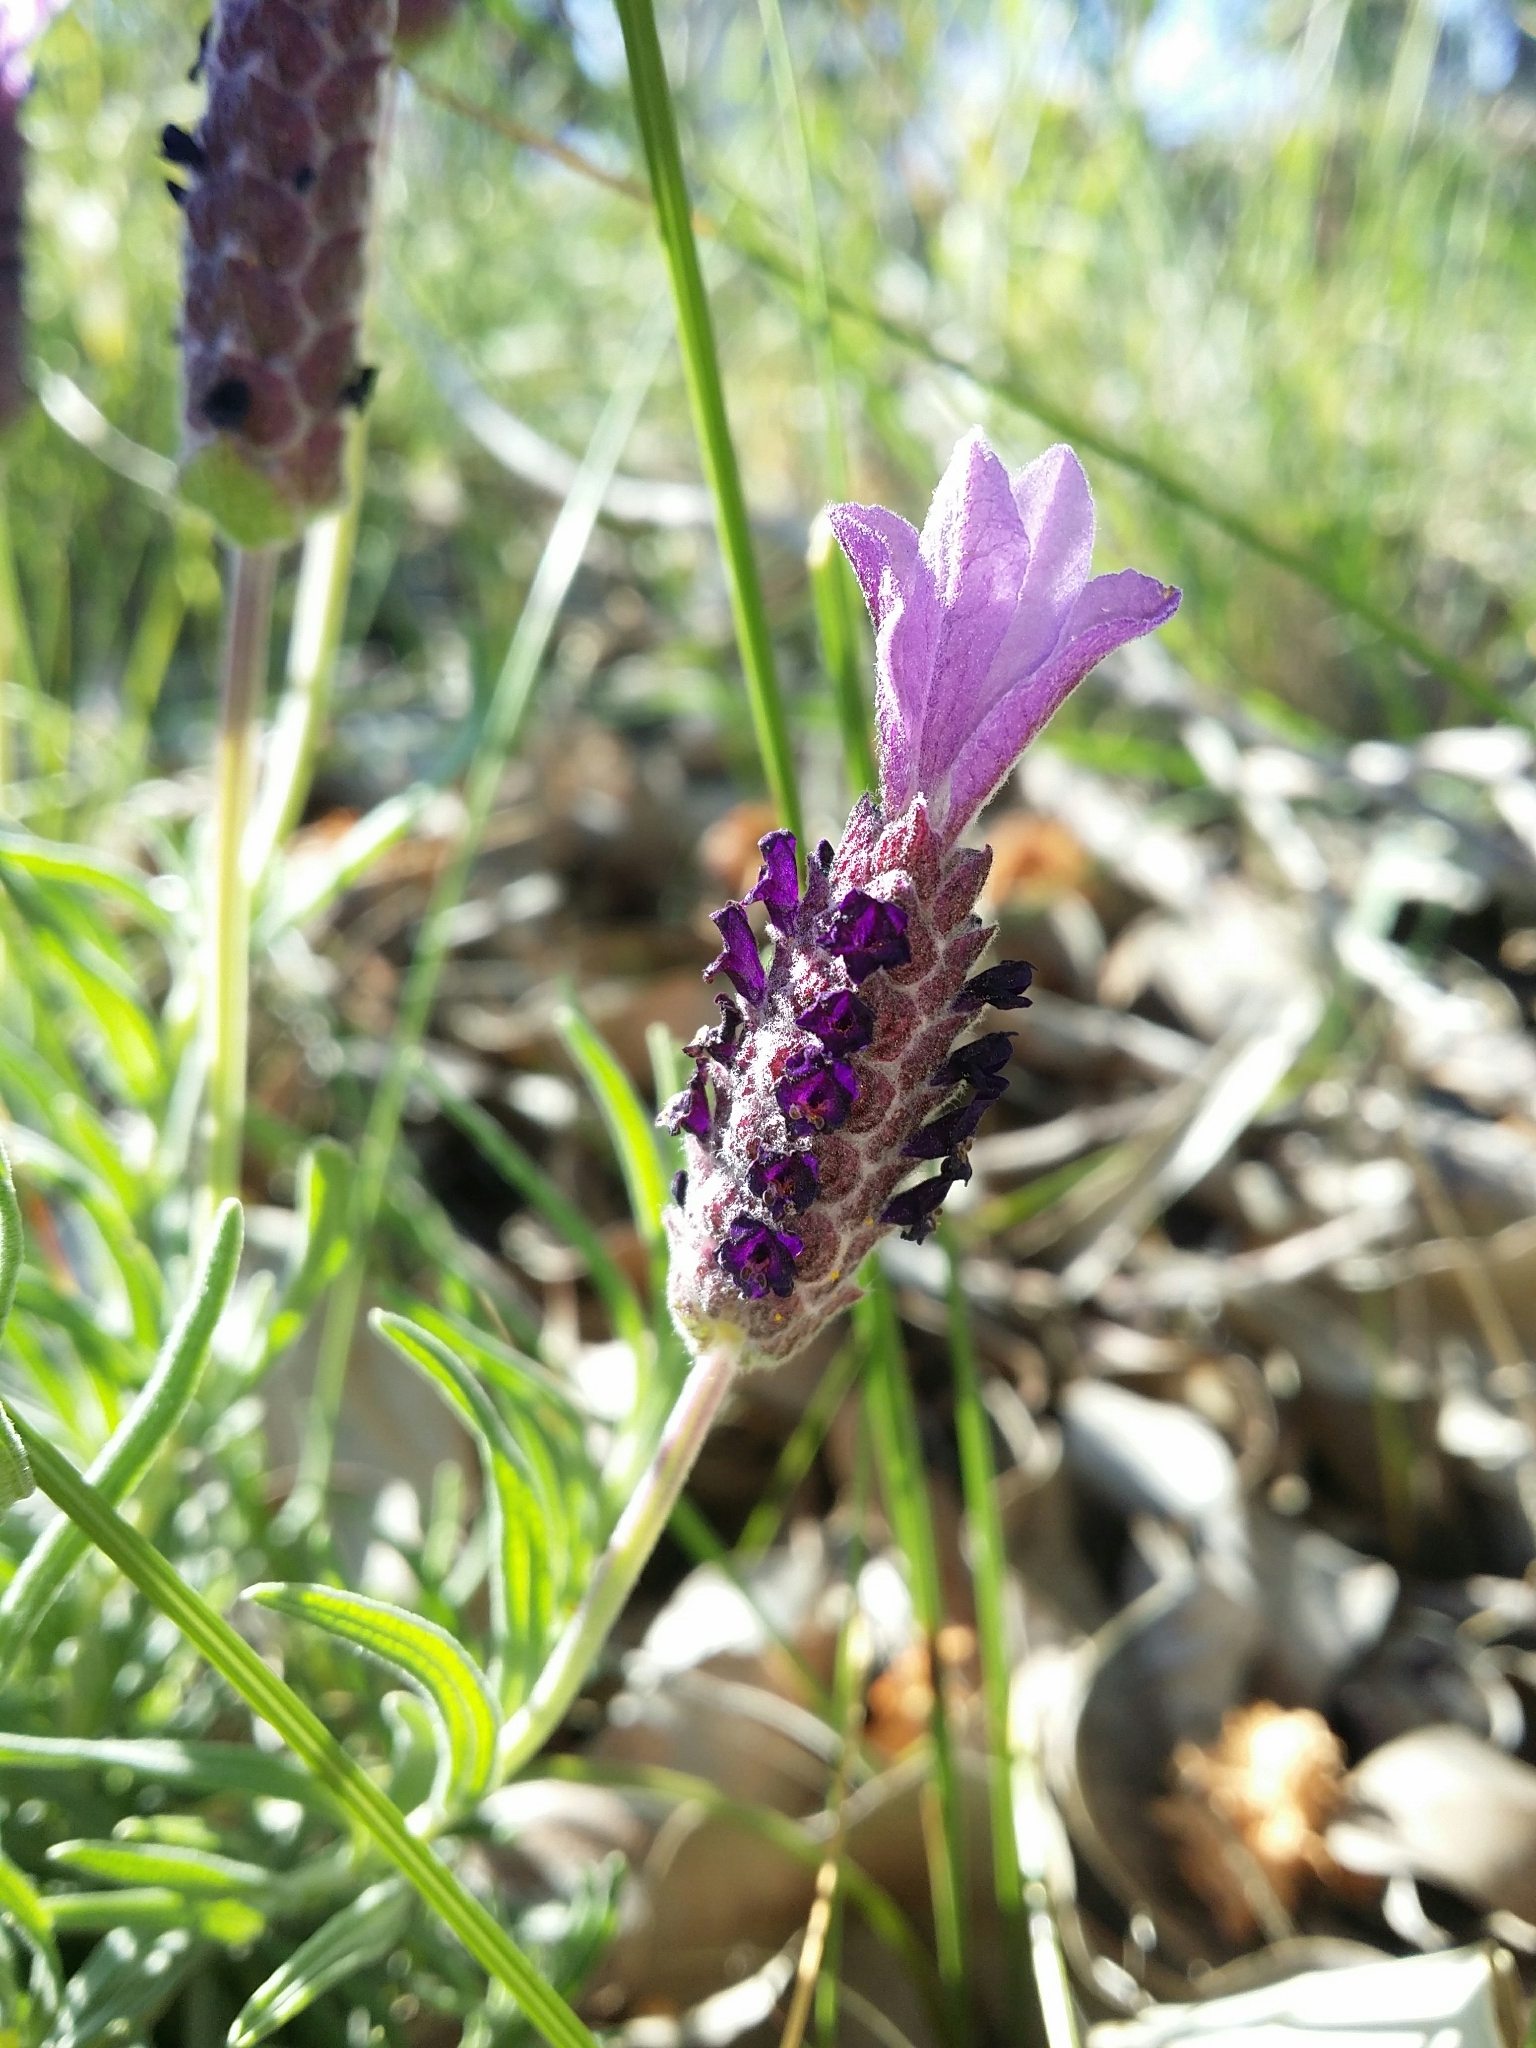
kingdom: Plantae
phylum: Tracheophyta
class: Magnoliopsida
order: Lamiales
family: Lamiaceae
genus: Lavandula
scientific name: Lavandula stoechas
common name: French lavender
